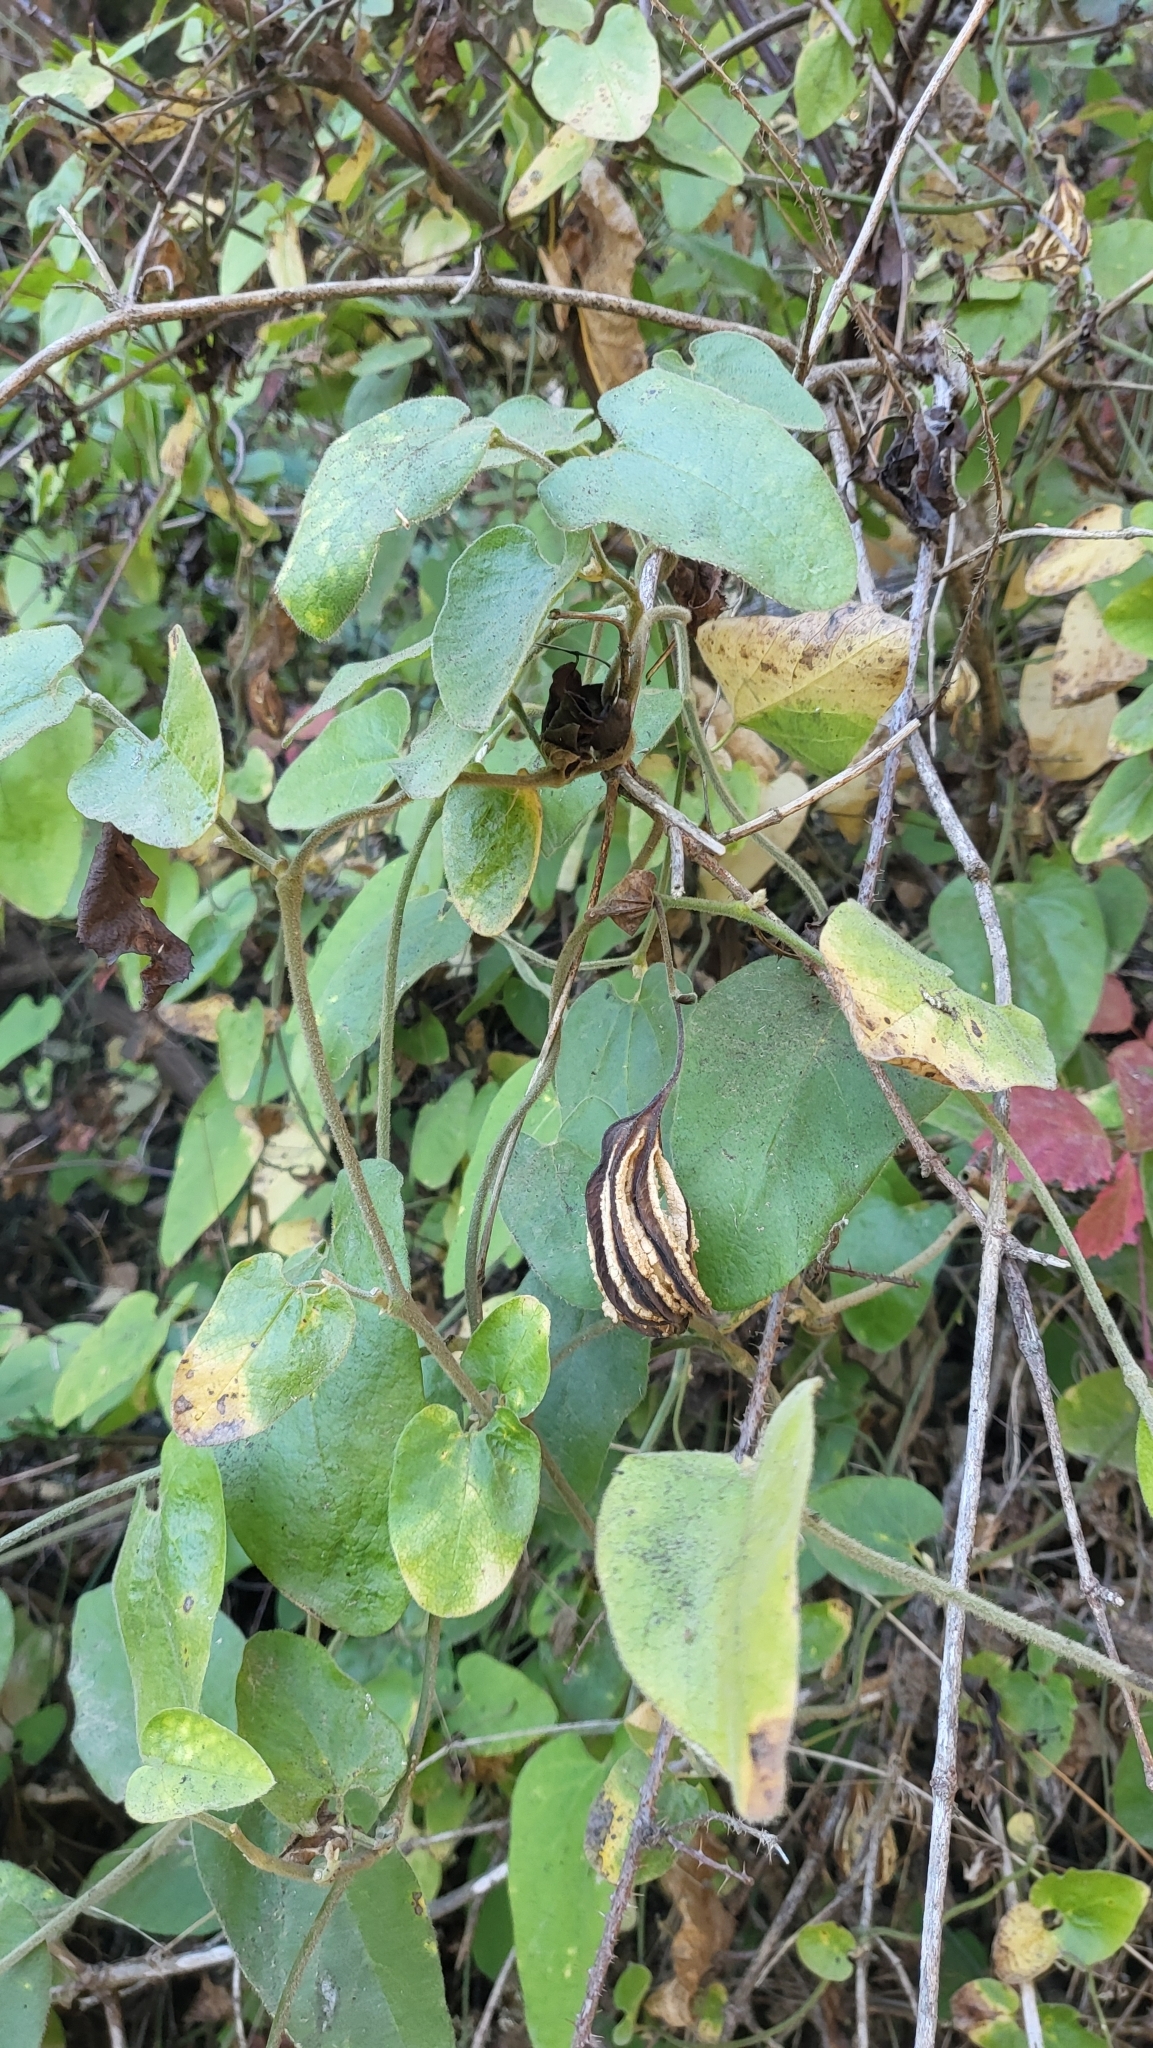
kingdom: Plantae
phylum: Tracheophyta
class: Magnoliopsida
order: Piperales
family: Aristolochiaceae
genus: Isotrema
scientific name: Isotrema californicum
